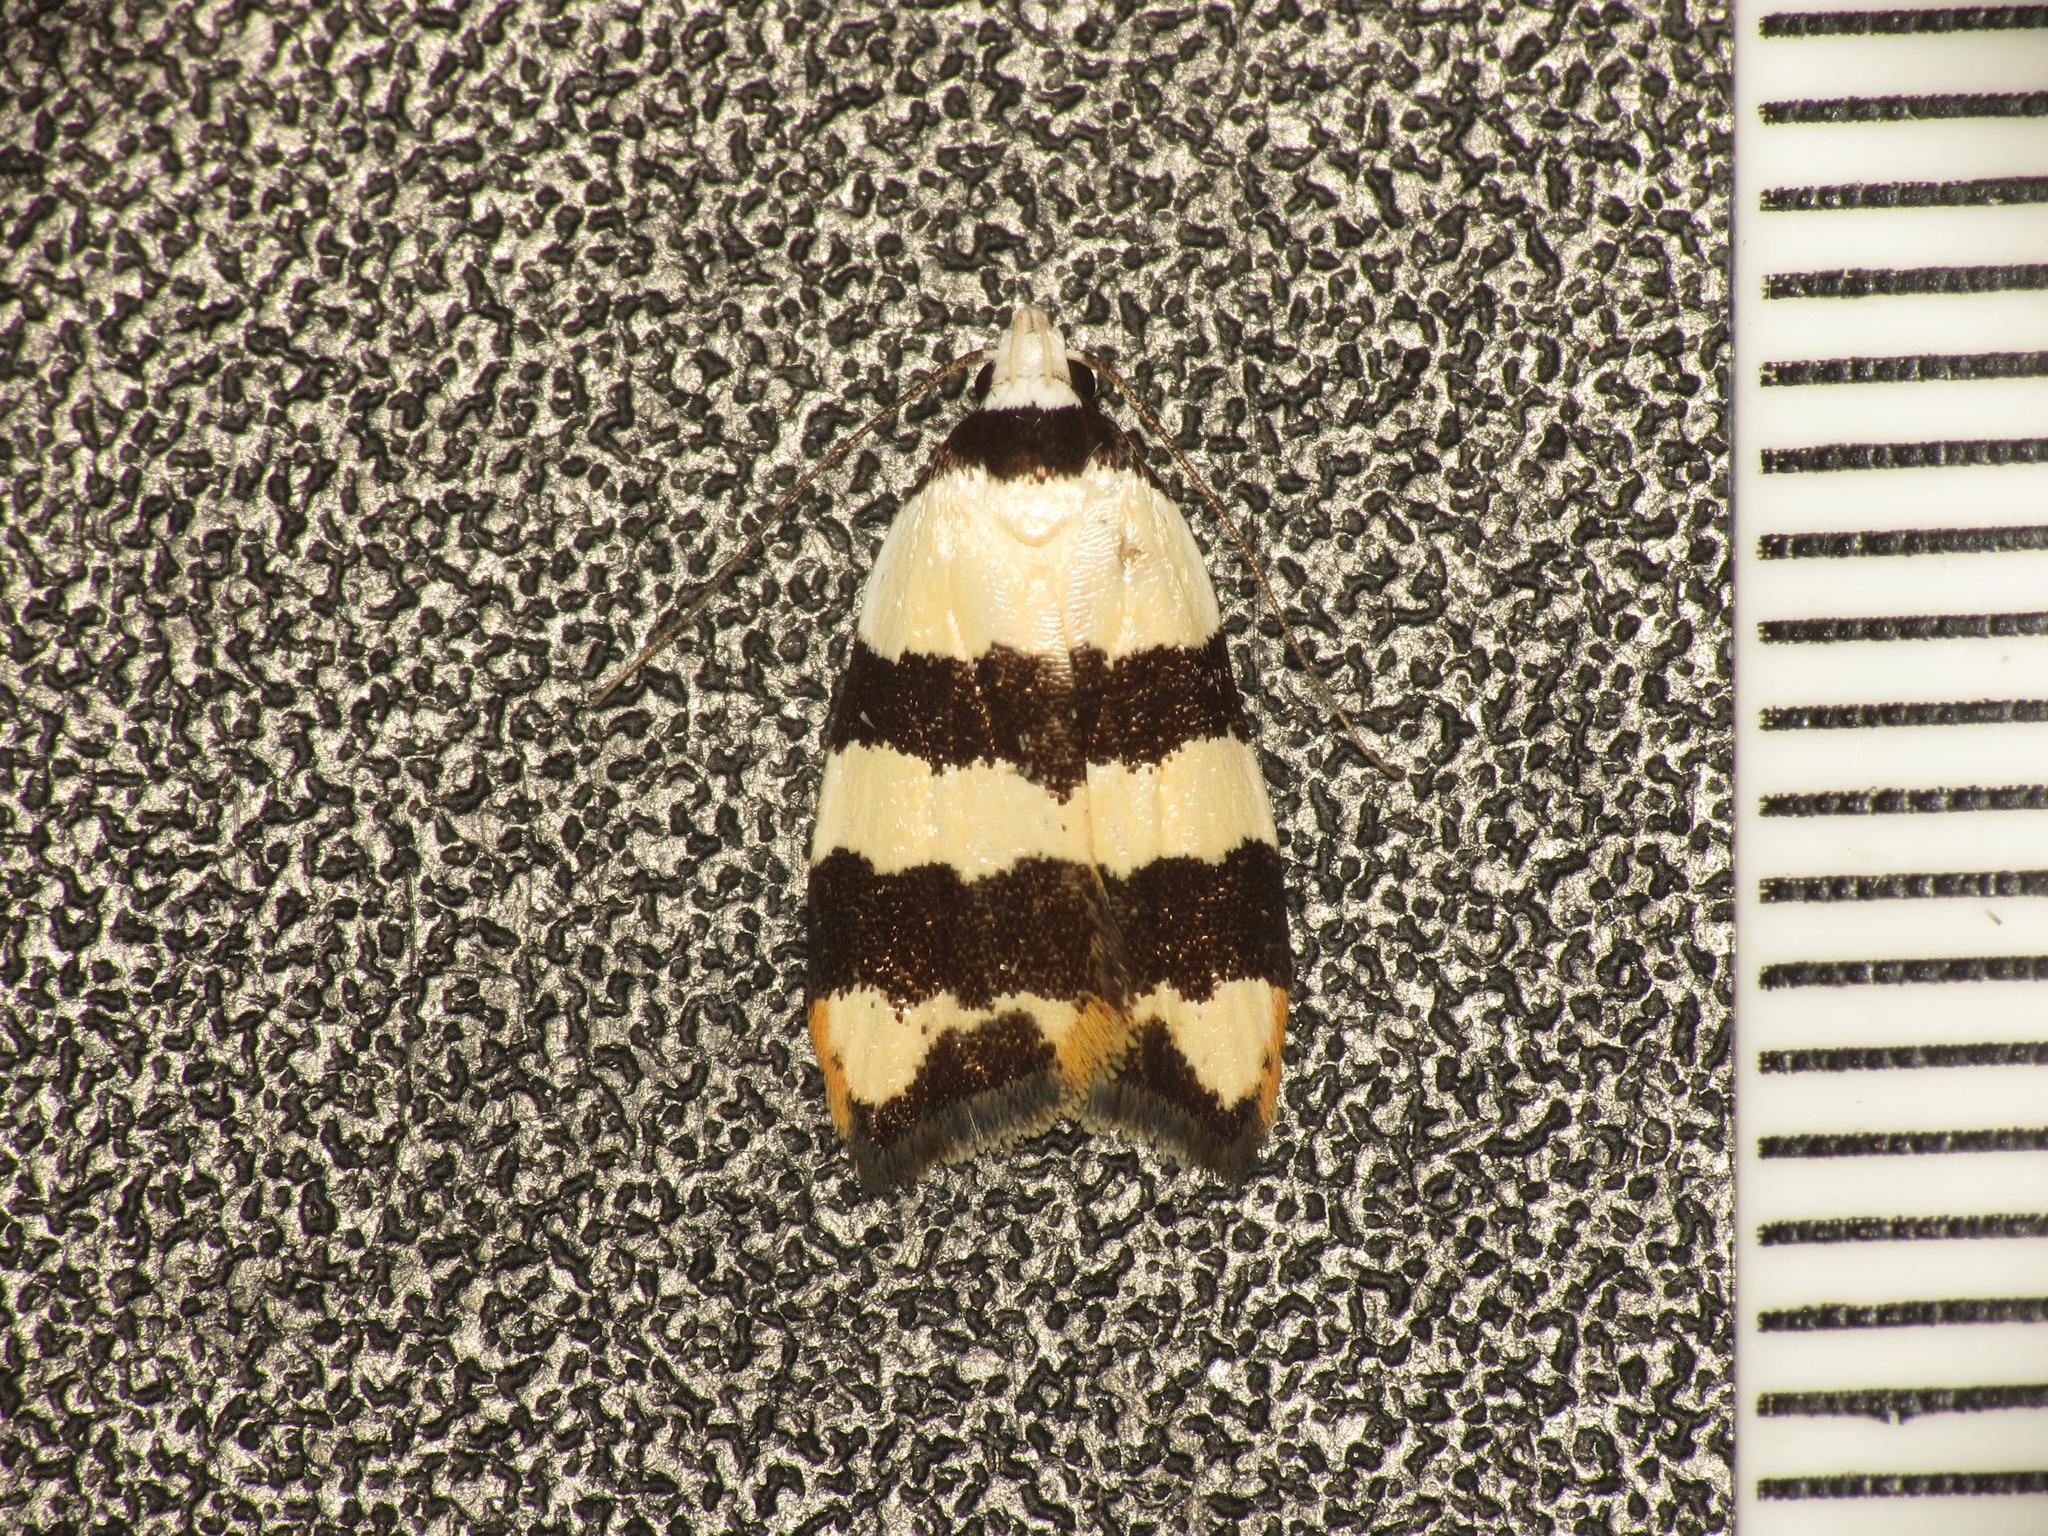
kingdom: Animalia
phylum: Arthropoda
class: Insecta
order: Lepidoptera
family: Oecophoridae
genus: Zonopetala
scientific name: Zonopetala clerota
